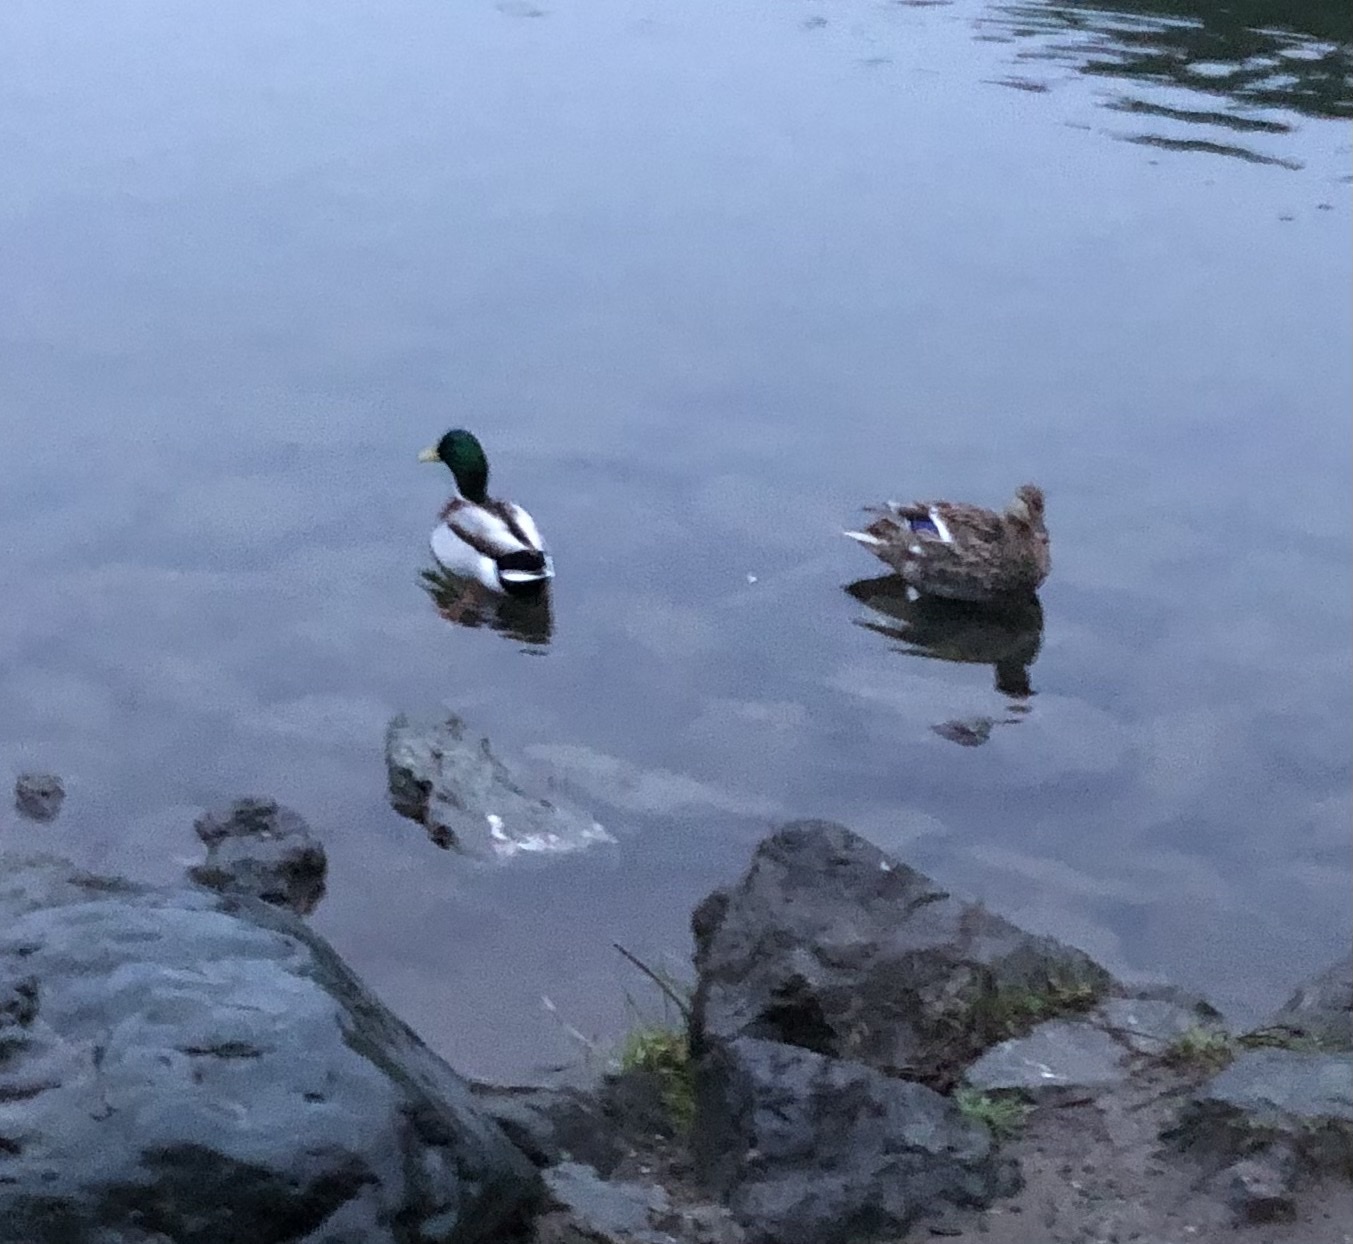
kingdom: Animalia
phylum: Chordata
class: Aves
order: Anseriformes
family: Anatidae
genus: Anas
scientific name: Anas platyrhynchos
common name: Mallard
